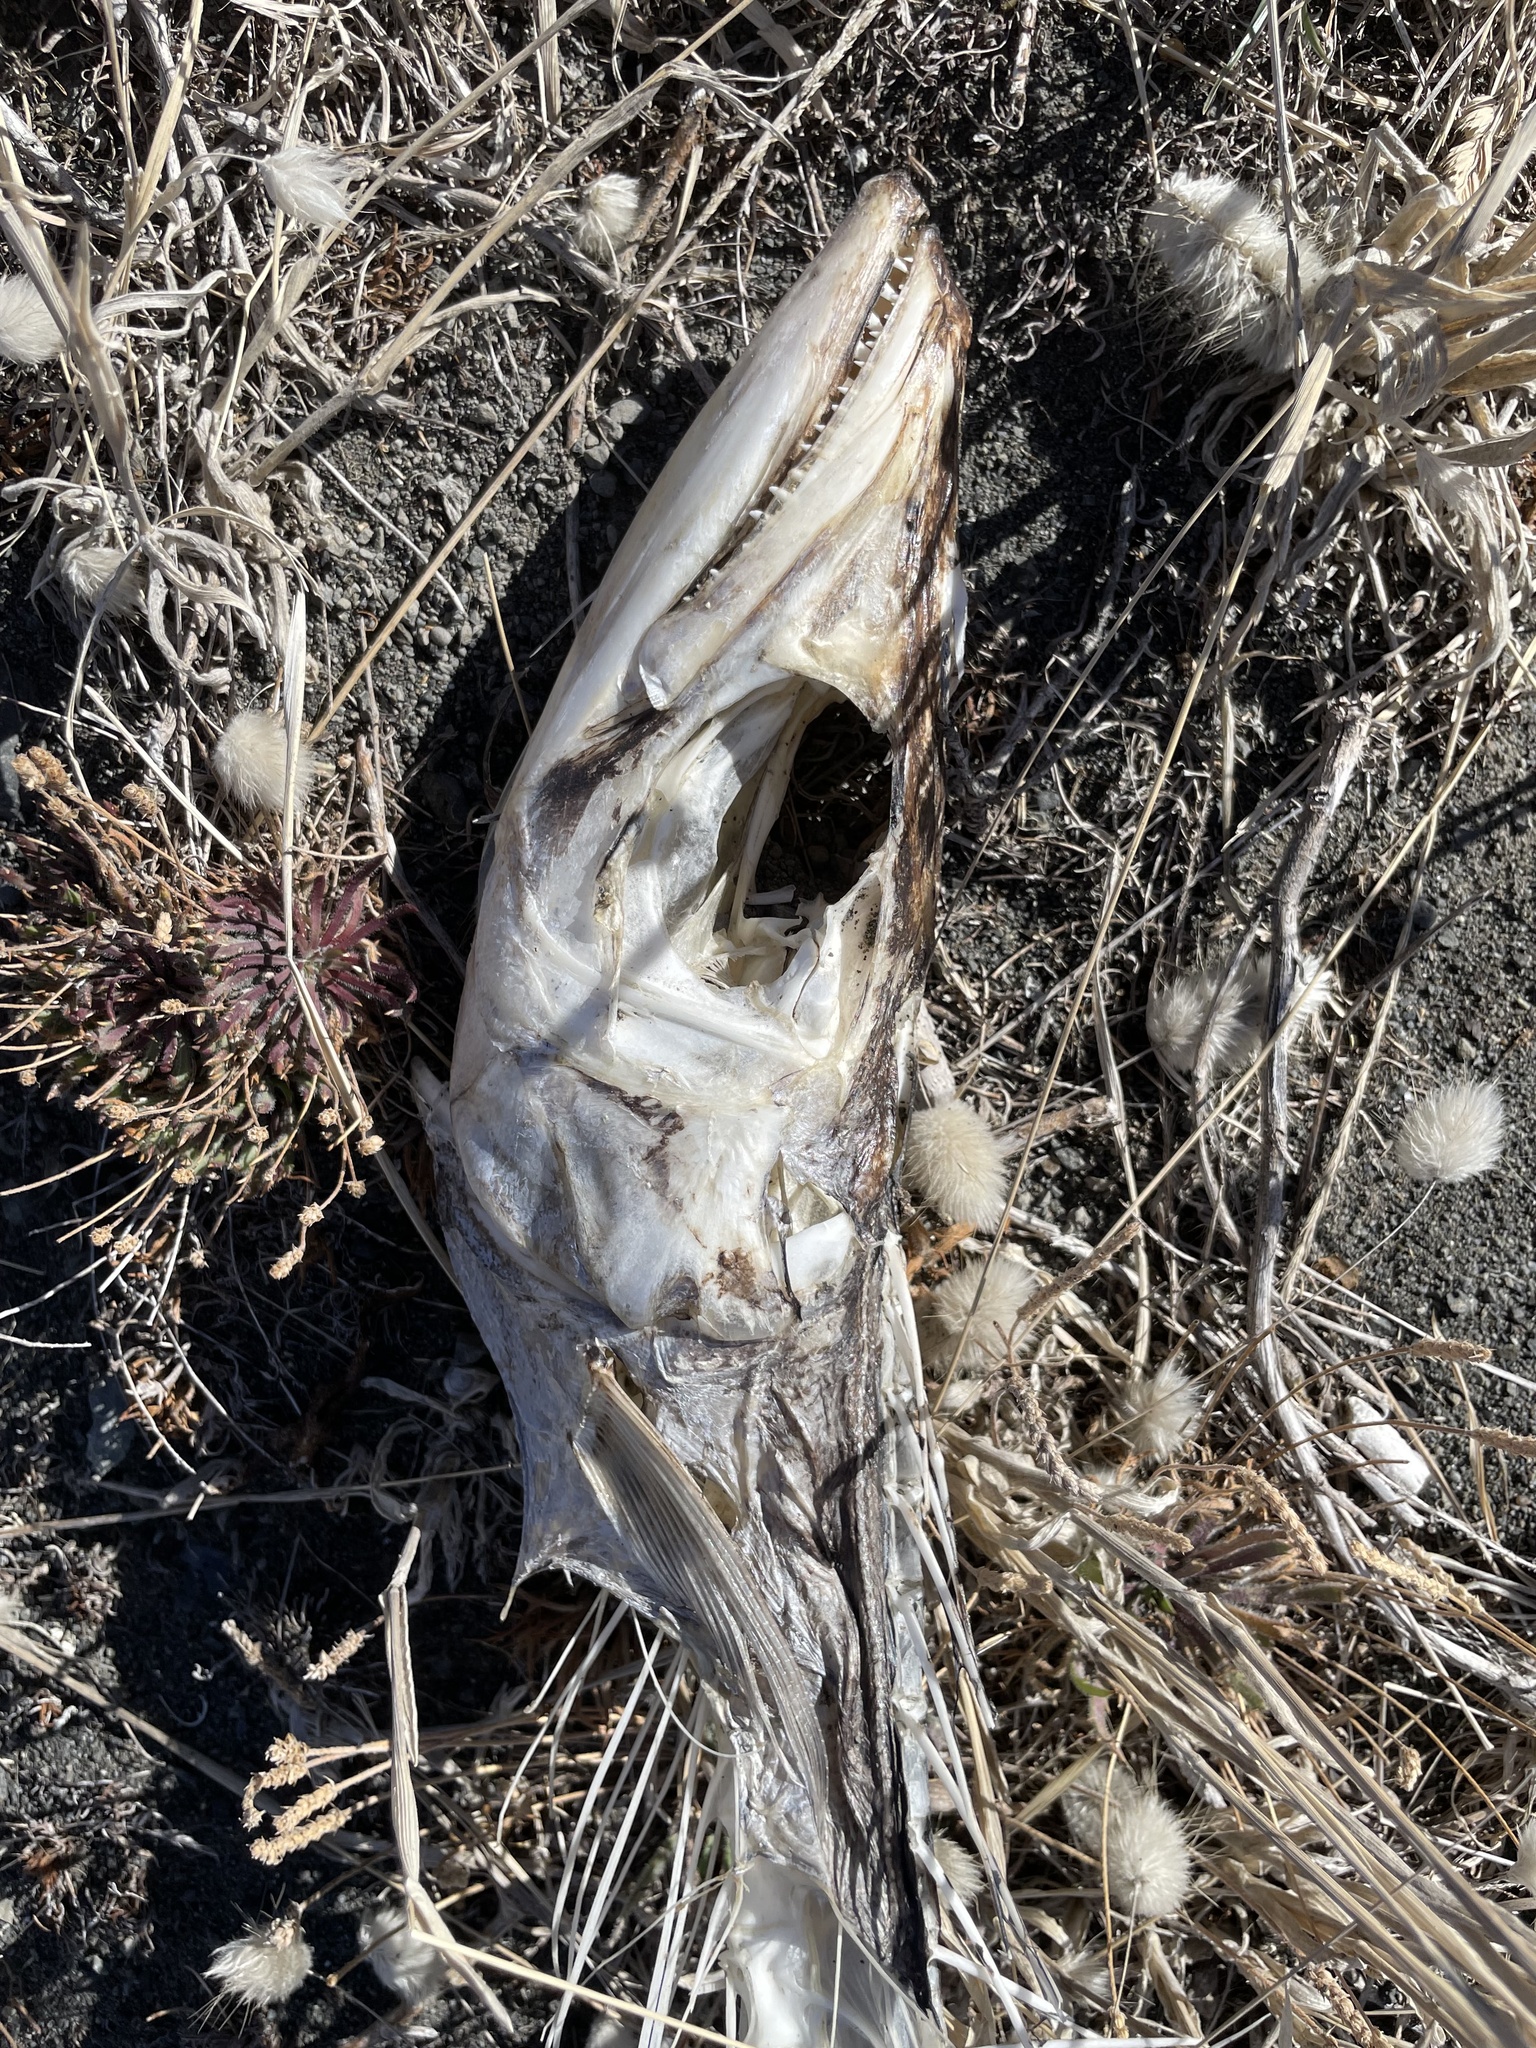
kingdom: Animalia
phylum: Chordata
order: Perciformes
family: Gempylidae
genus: Thyrsites
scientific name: Thyrsites atun
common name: Snoek
